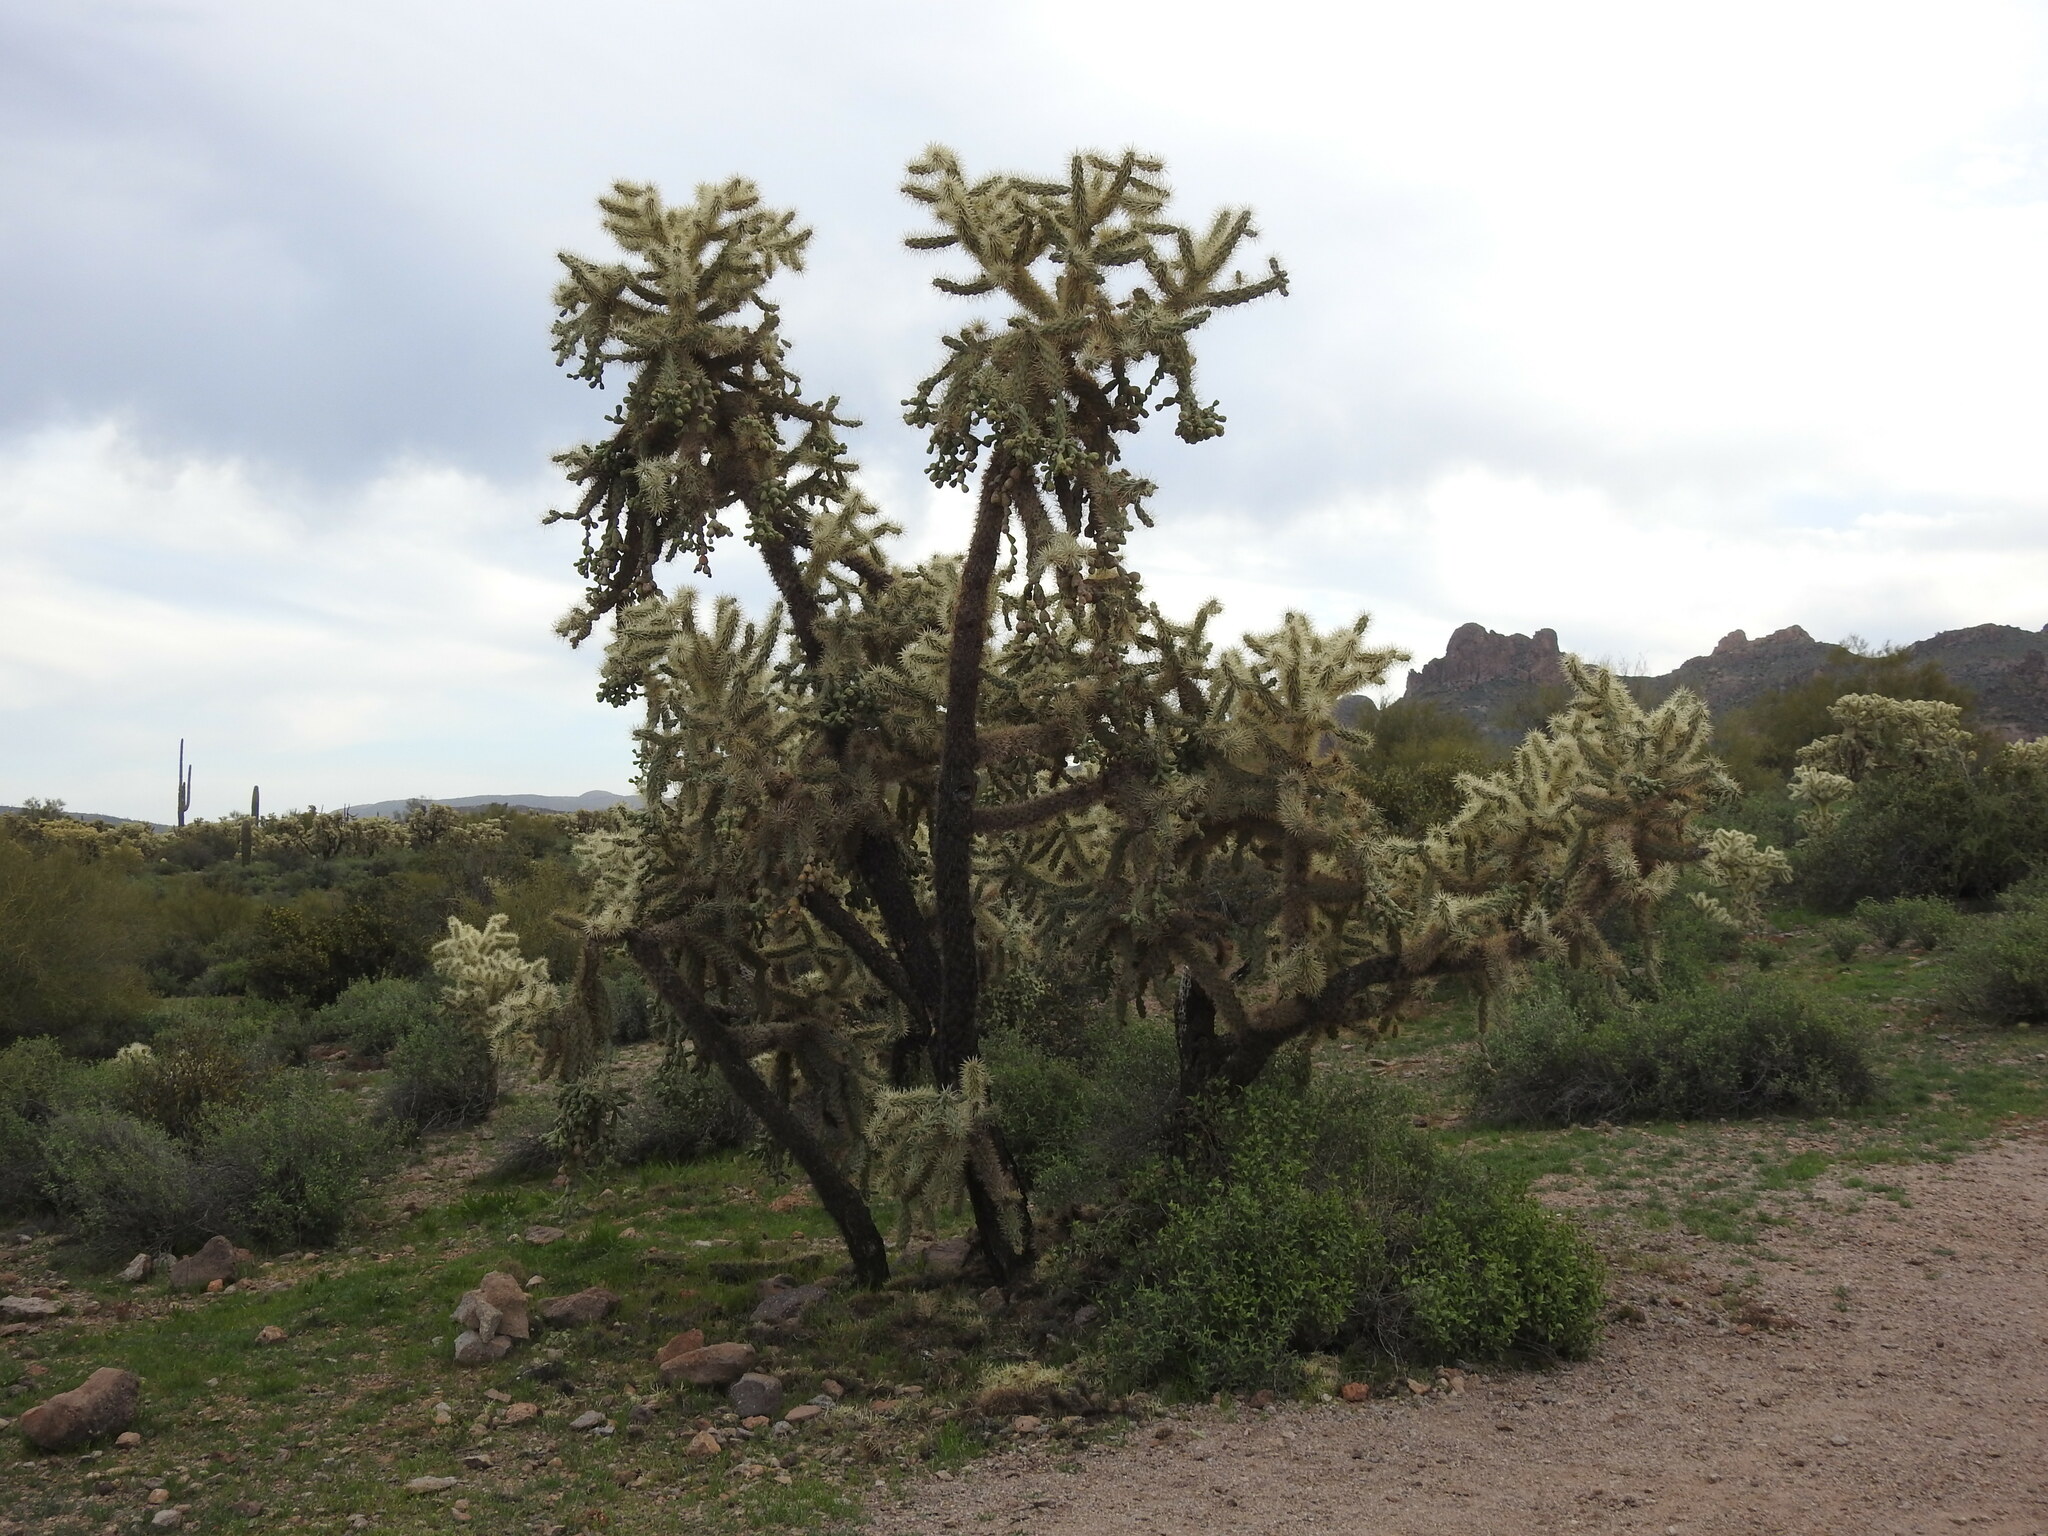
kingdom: Plantae
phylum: Tracheophyta
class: Magnoliopsida
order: Caryophyllales
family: Cactaceae
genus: Cylindropuntia
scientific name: Cylindropuntia fulgida
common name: Jumping cholla
